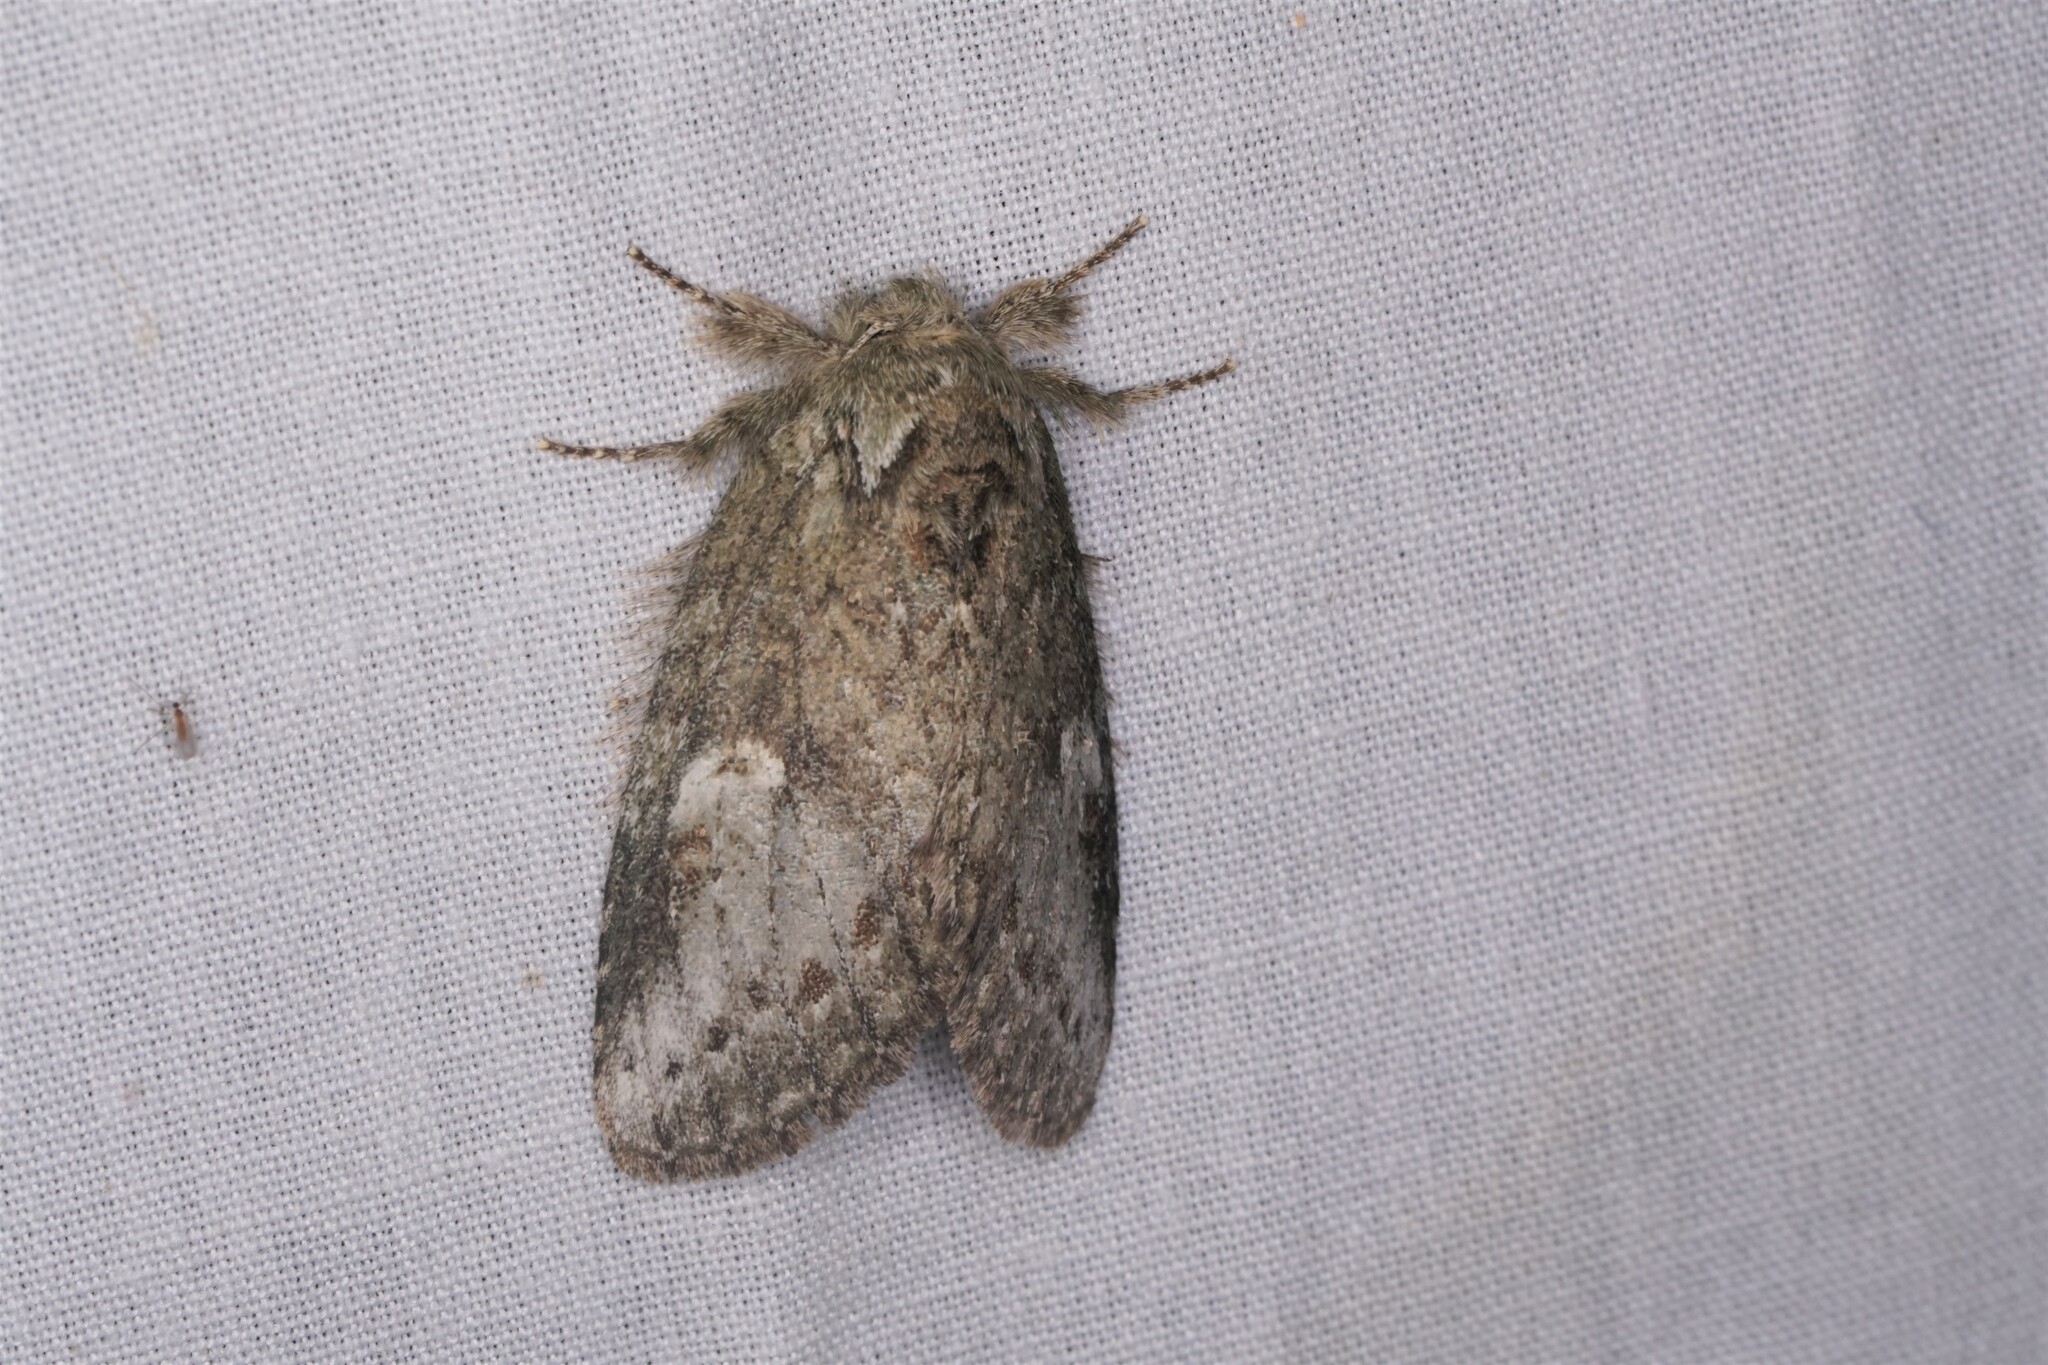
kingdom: Animalia
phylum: Arthropoda
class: Insecta
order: Lepidoptera
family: Notodontidae
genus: Disphragis
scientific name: Disphragis Cecrita guttivitta
